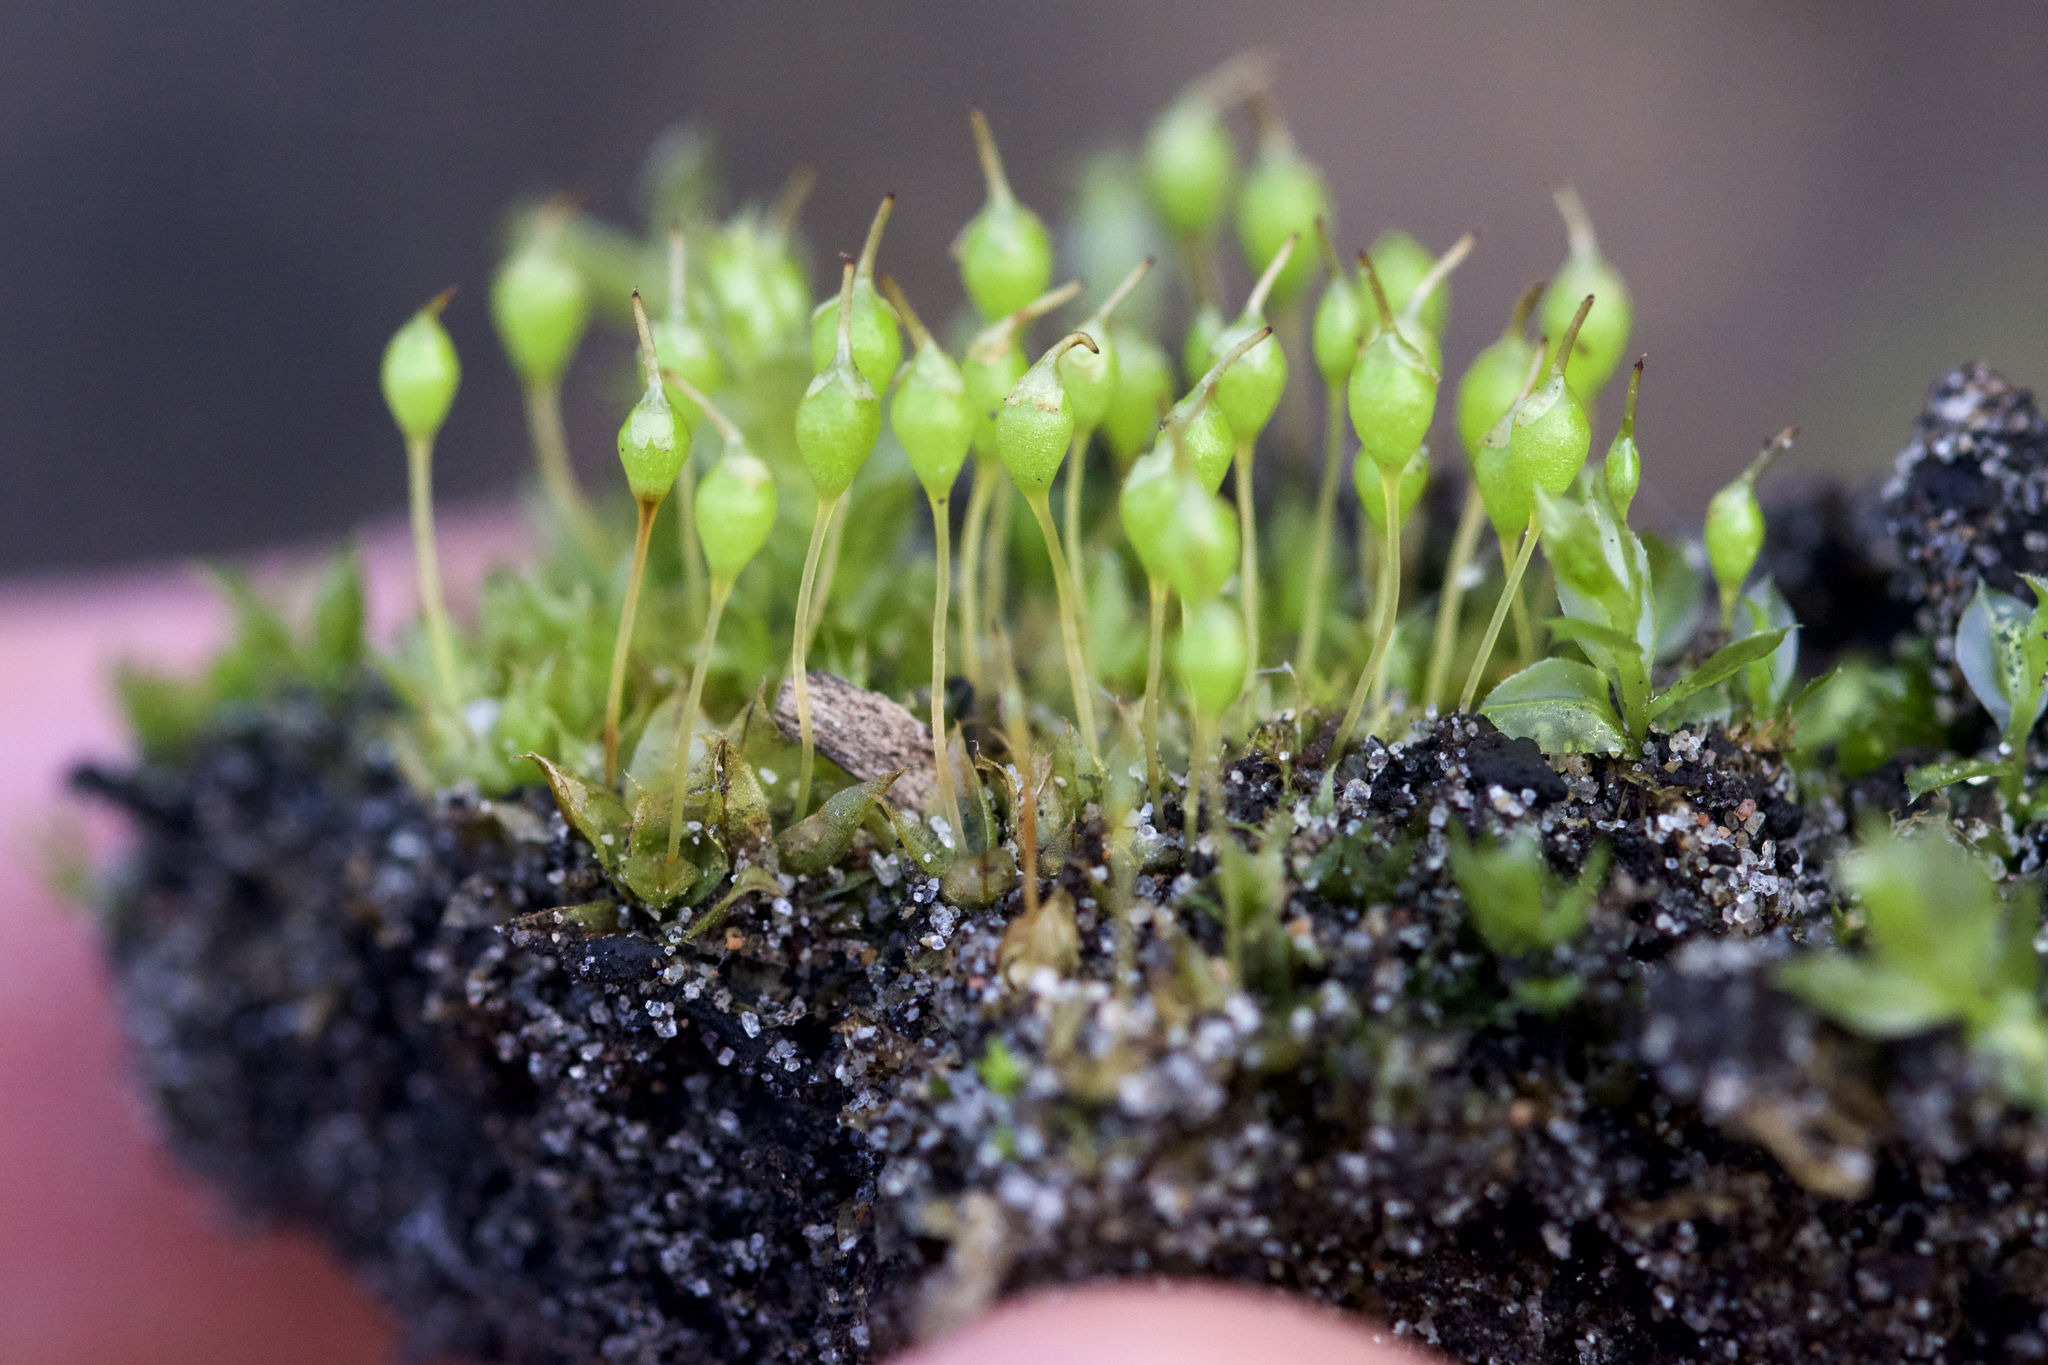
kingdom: Plantae
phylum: Bryophyta
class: Bryopsida
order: Funariales
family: Funariaceae
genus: Physcomitrium
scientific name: Physcomitrium pyriforme
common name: Common bladder-moss
